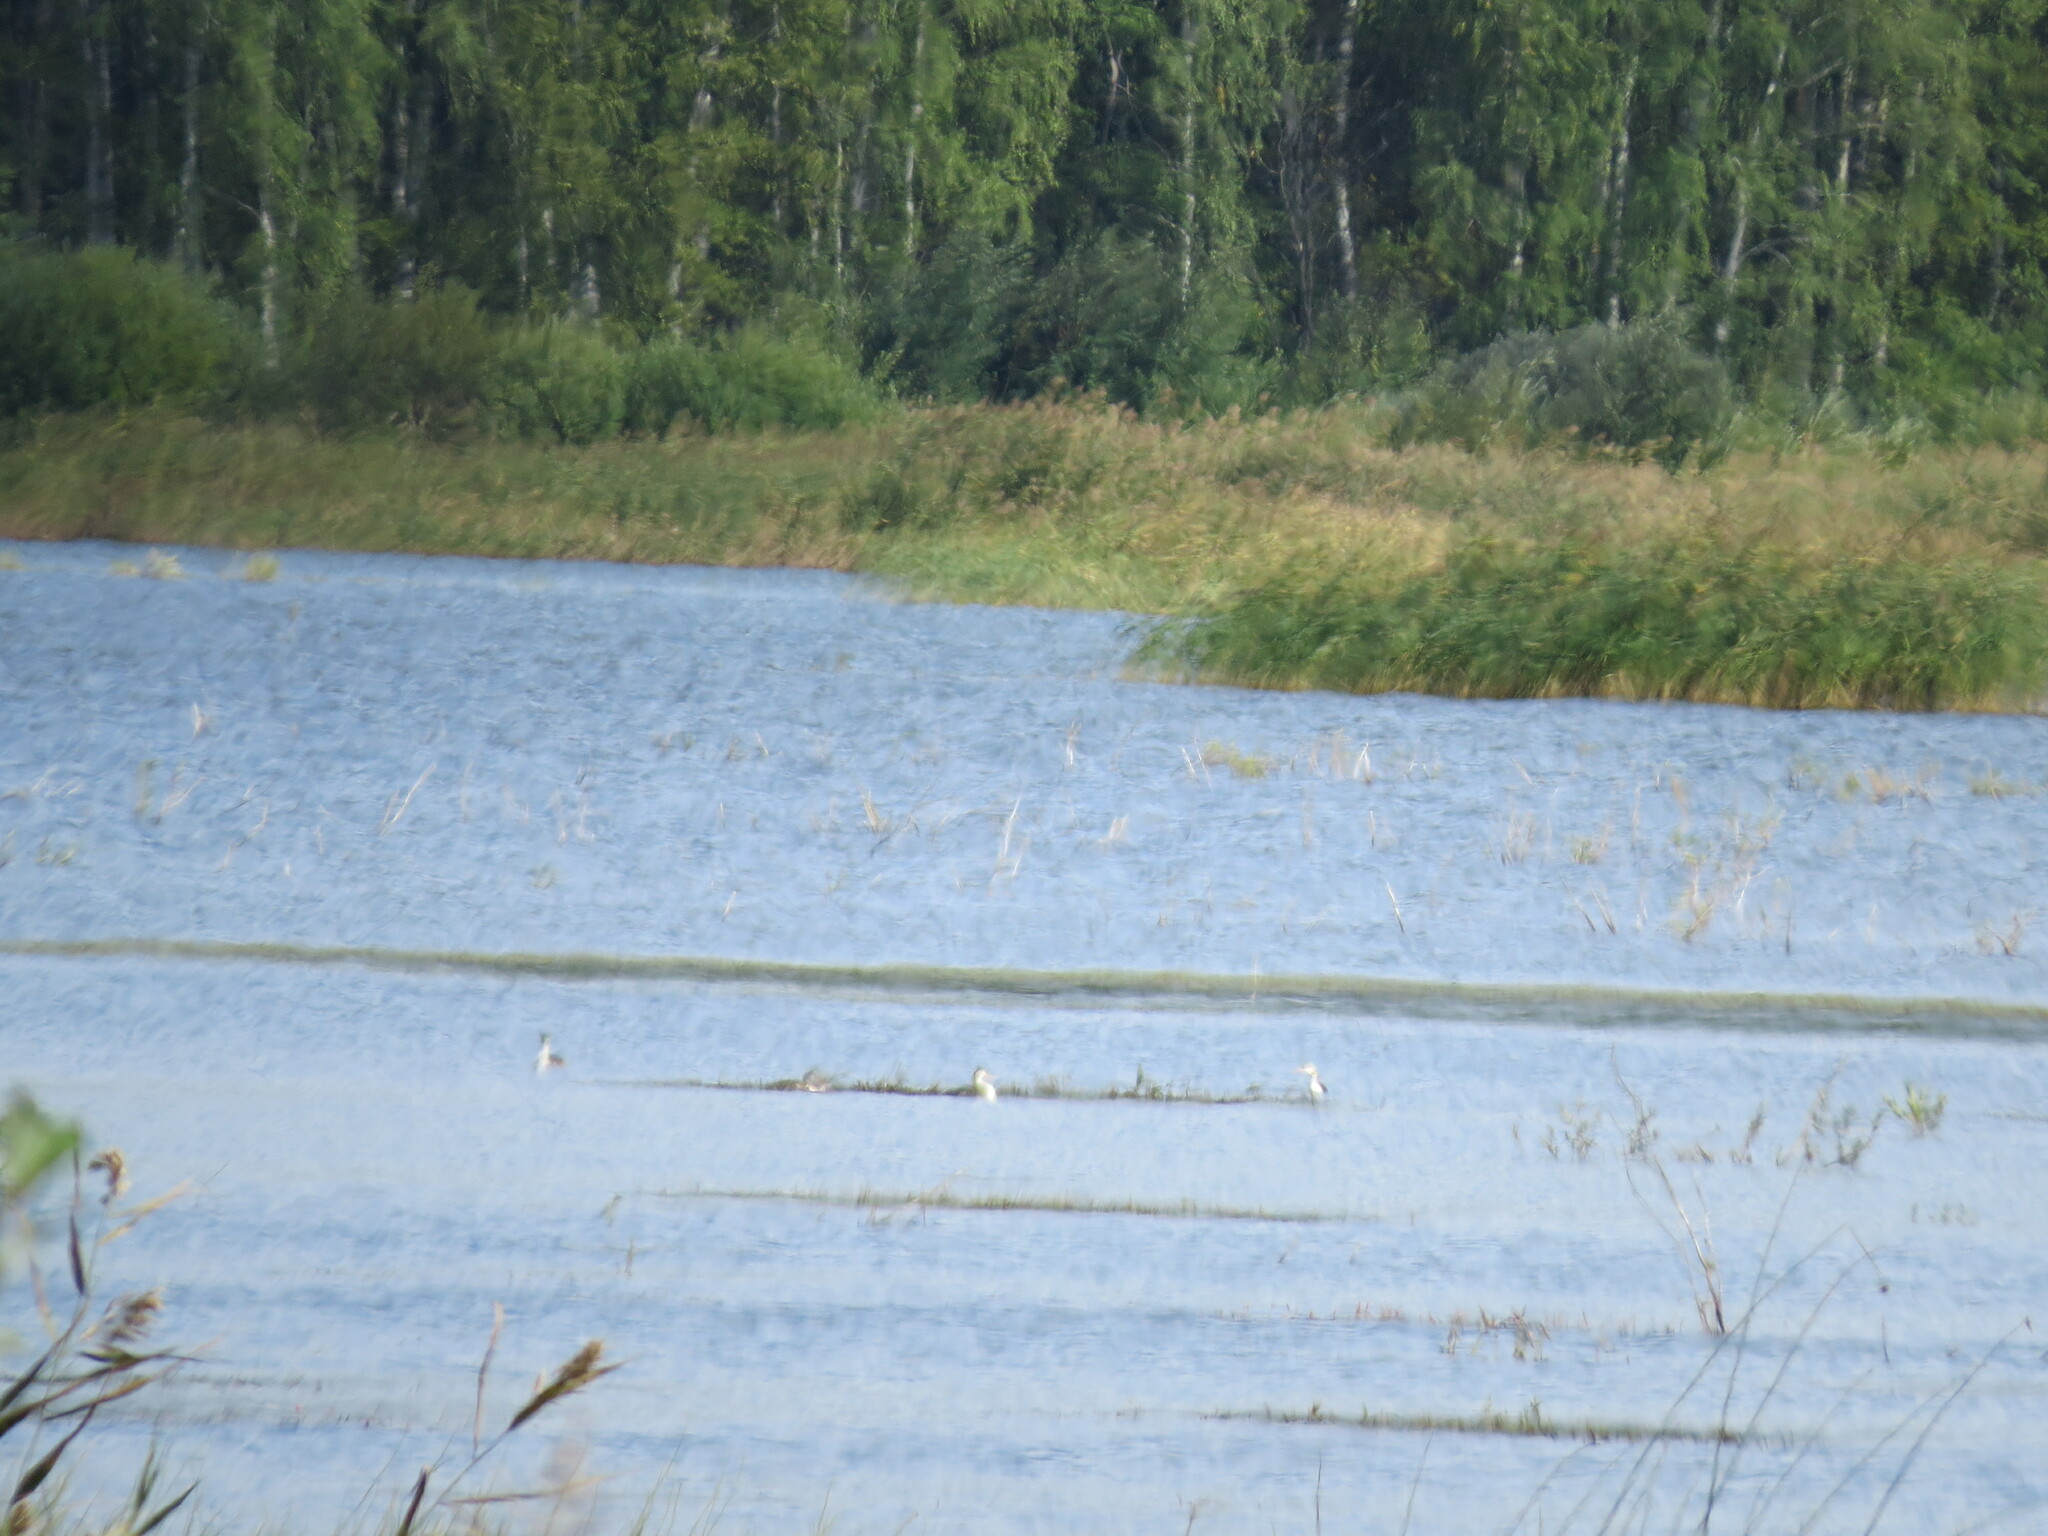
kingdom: Animalia
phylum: Chordata
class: Aves
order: Podicipediformes
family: Podicipedidae
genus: Podiceps
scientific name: Podiceps cristatus
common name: Great crested grebe
